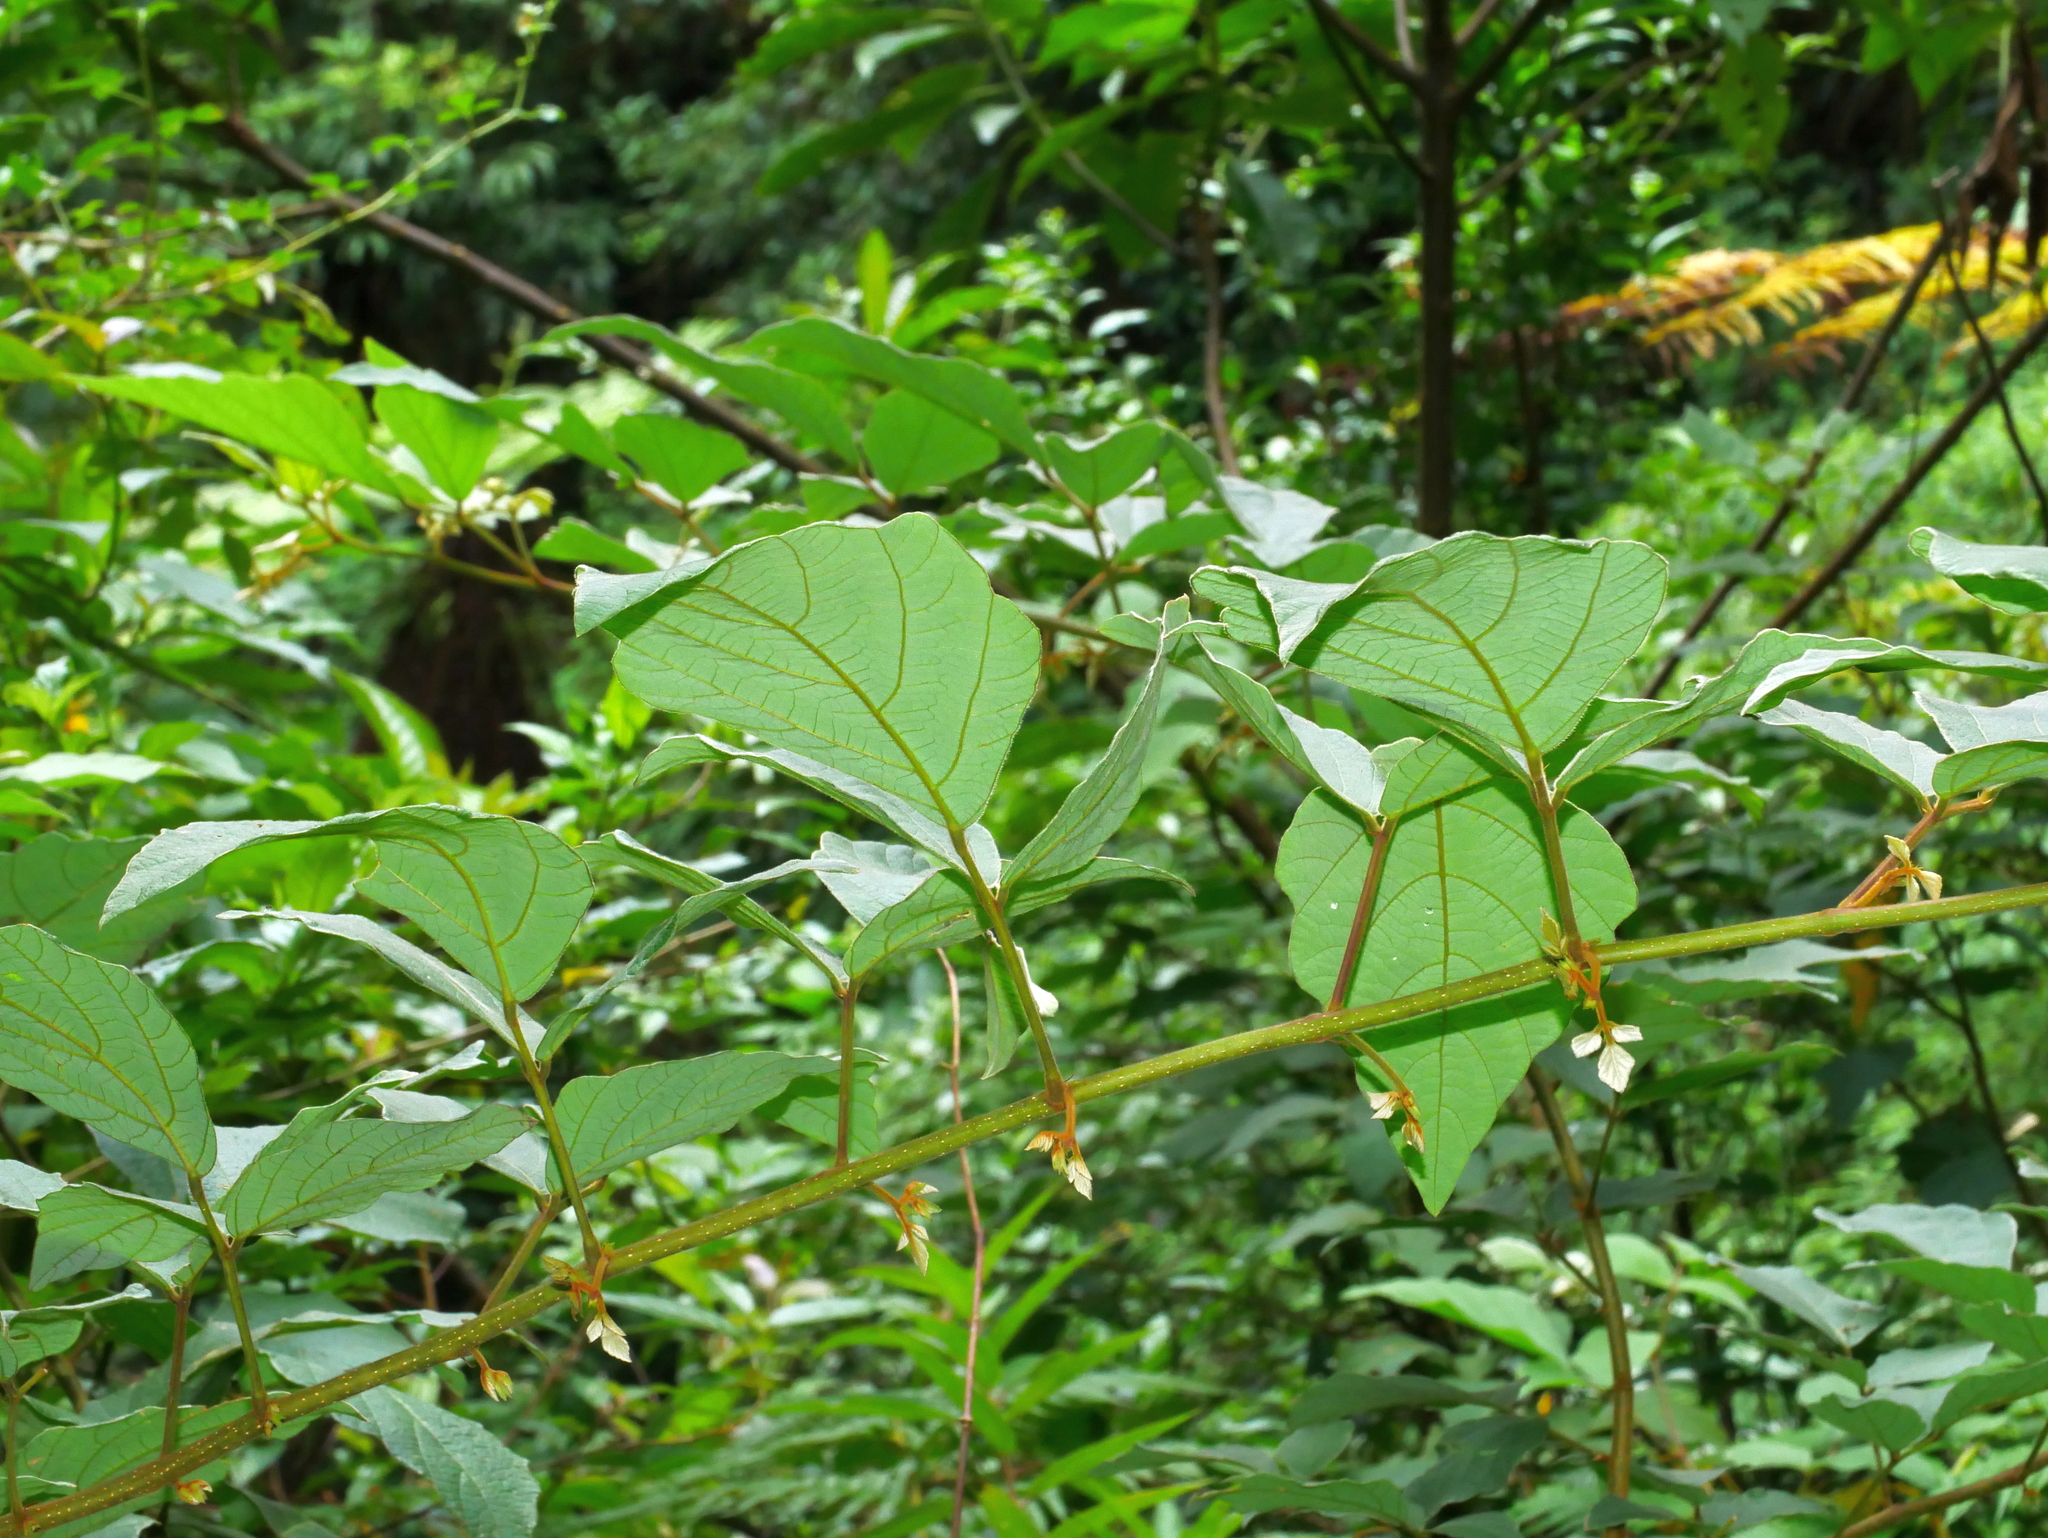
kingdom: Plantae
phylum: Tracheophyta
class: Magnoliopsida
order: Fabales
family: Fabaceae
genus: Puhuaea
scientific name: Puhuaea sequax
